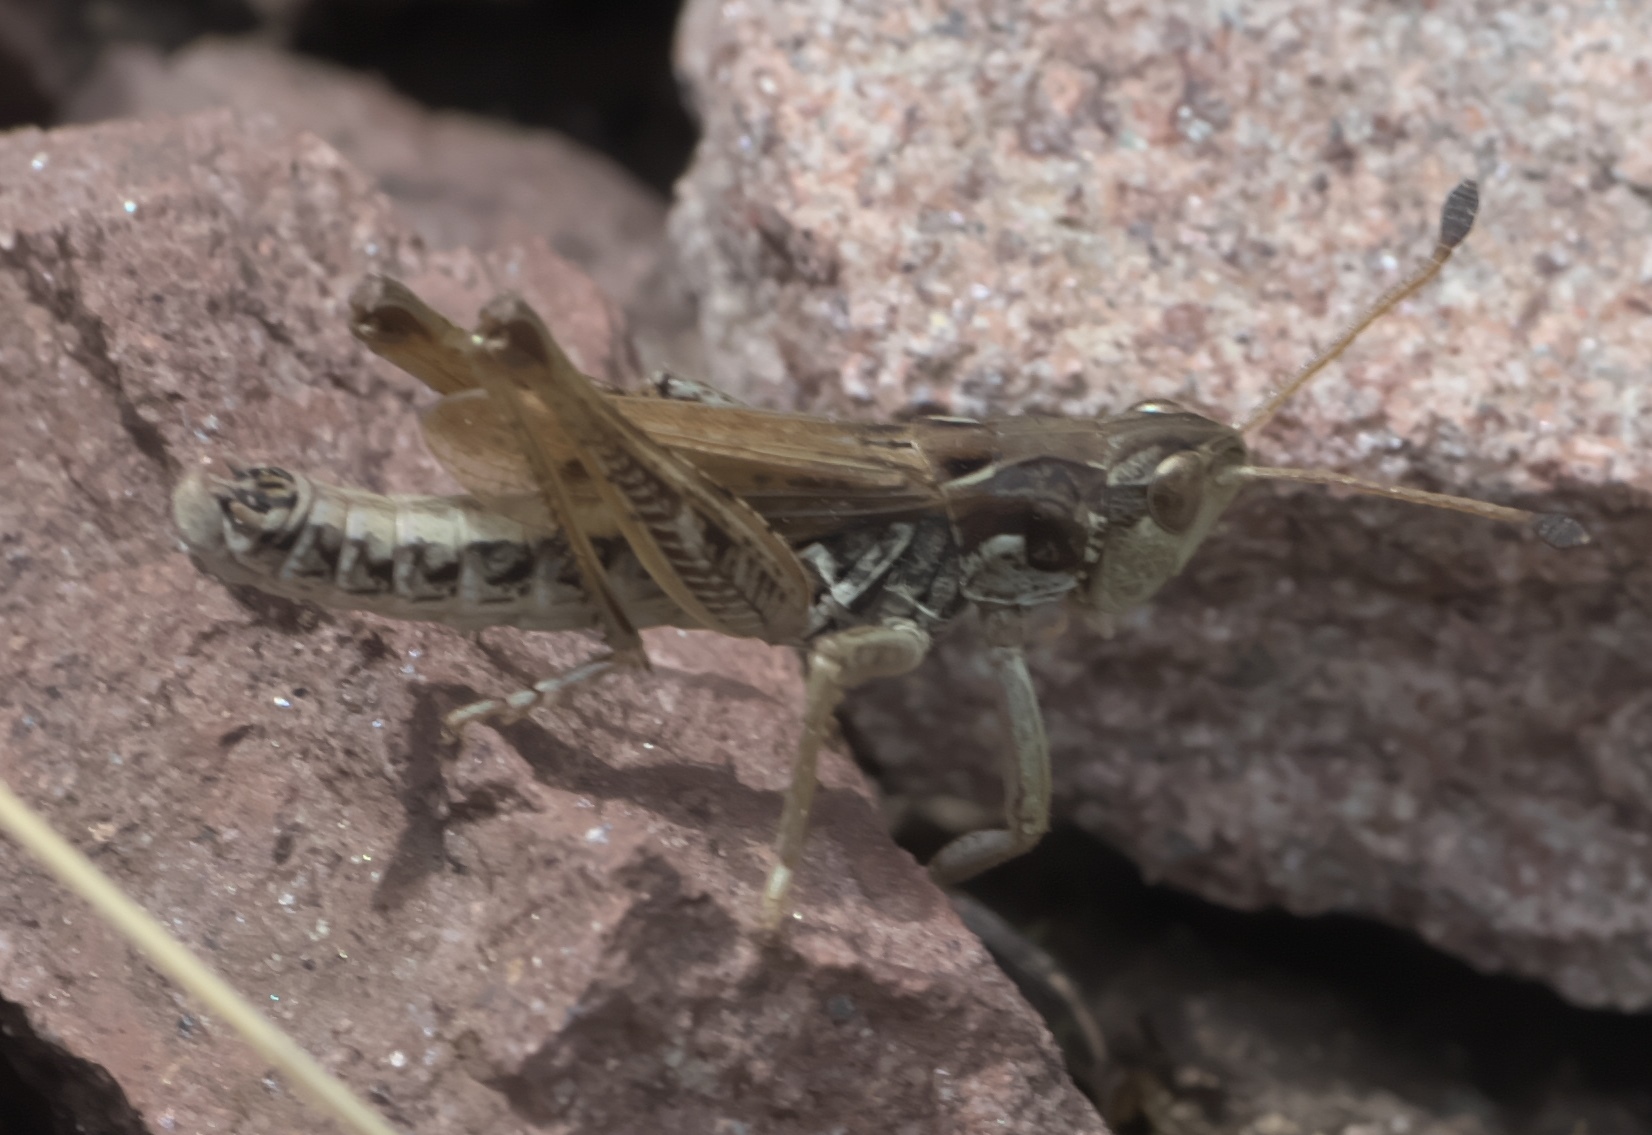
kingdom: Animalia
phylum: Arthropoda
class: Insecta
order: Orthoptera
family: Acrididae
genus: Aeropedellus
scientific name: Aeropedellus clavatus
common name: Clubhorned grasshopper
